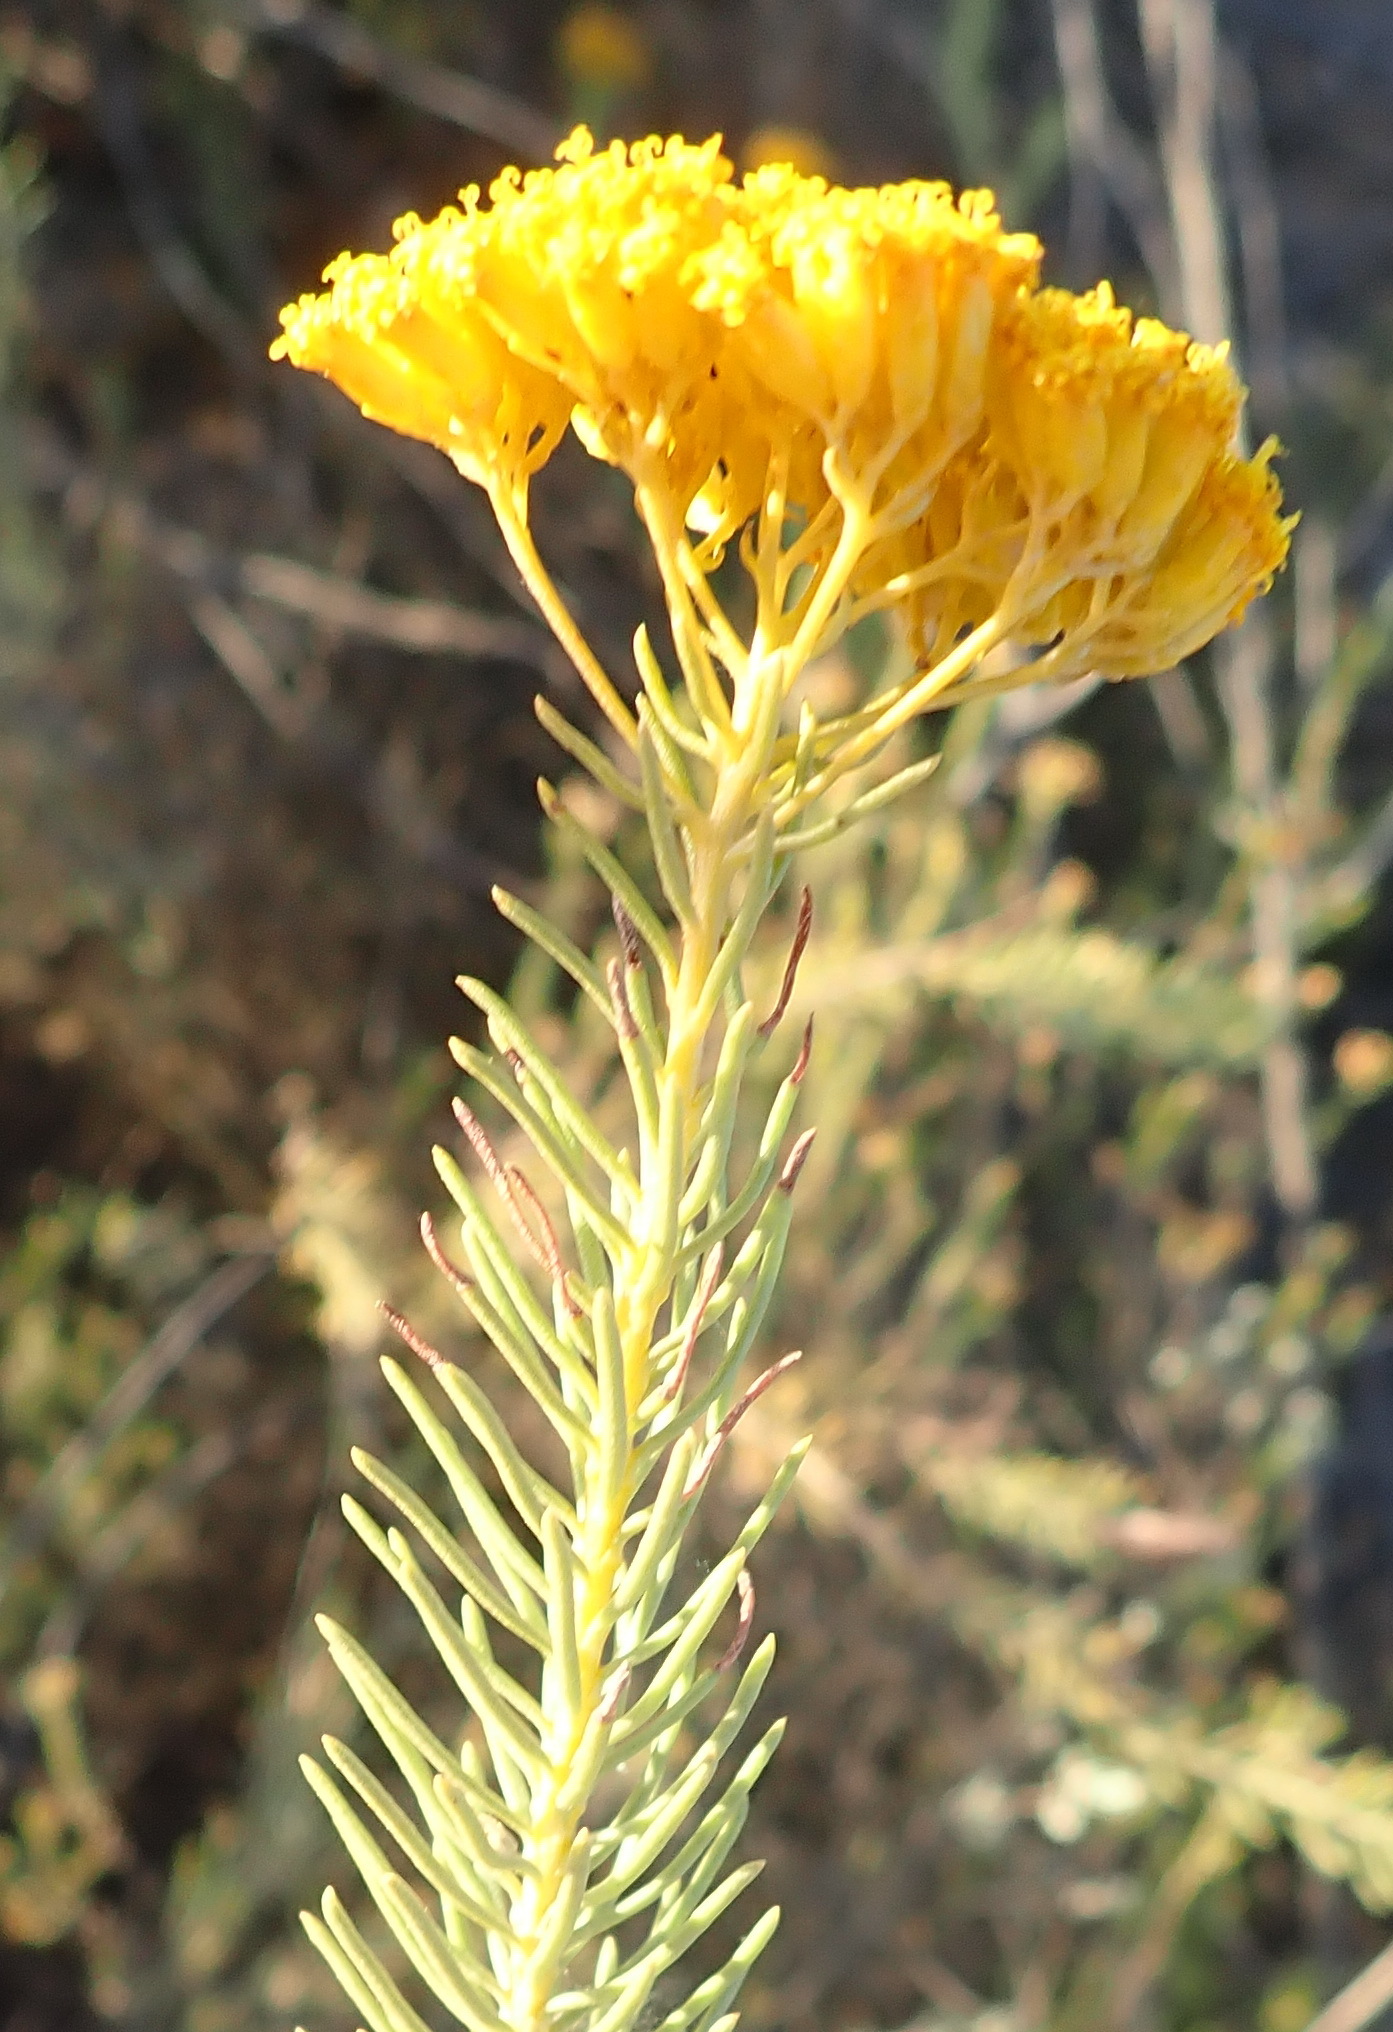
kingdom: Plantae
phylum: Tracheophyta
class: Magnoliopsida
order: Asterales
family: Asteraceae
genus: Athanasia
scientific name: Athanasia vestita
